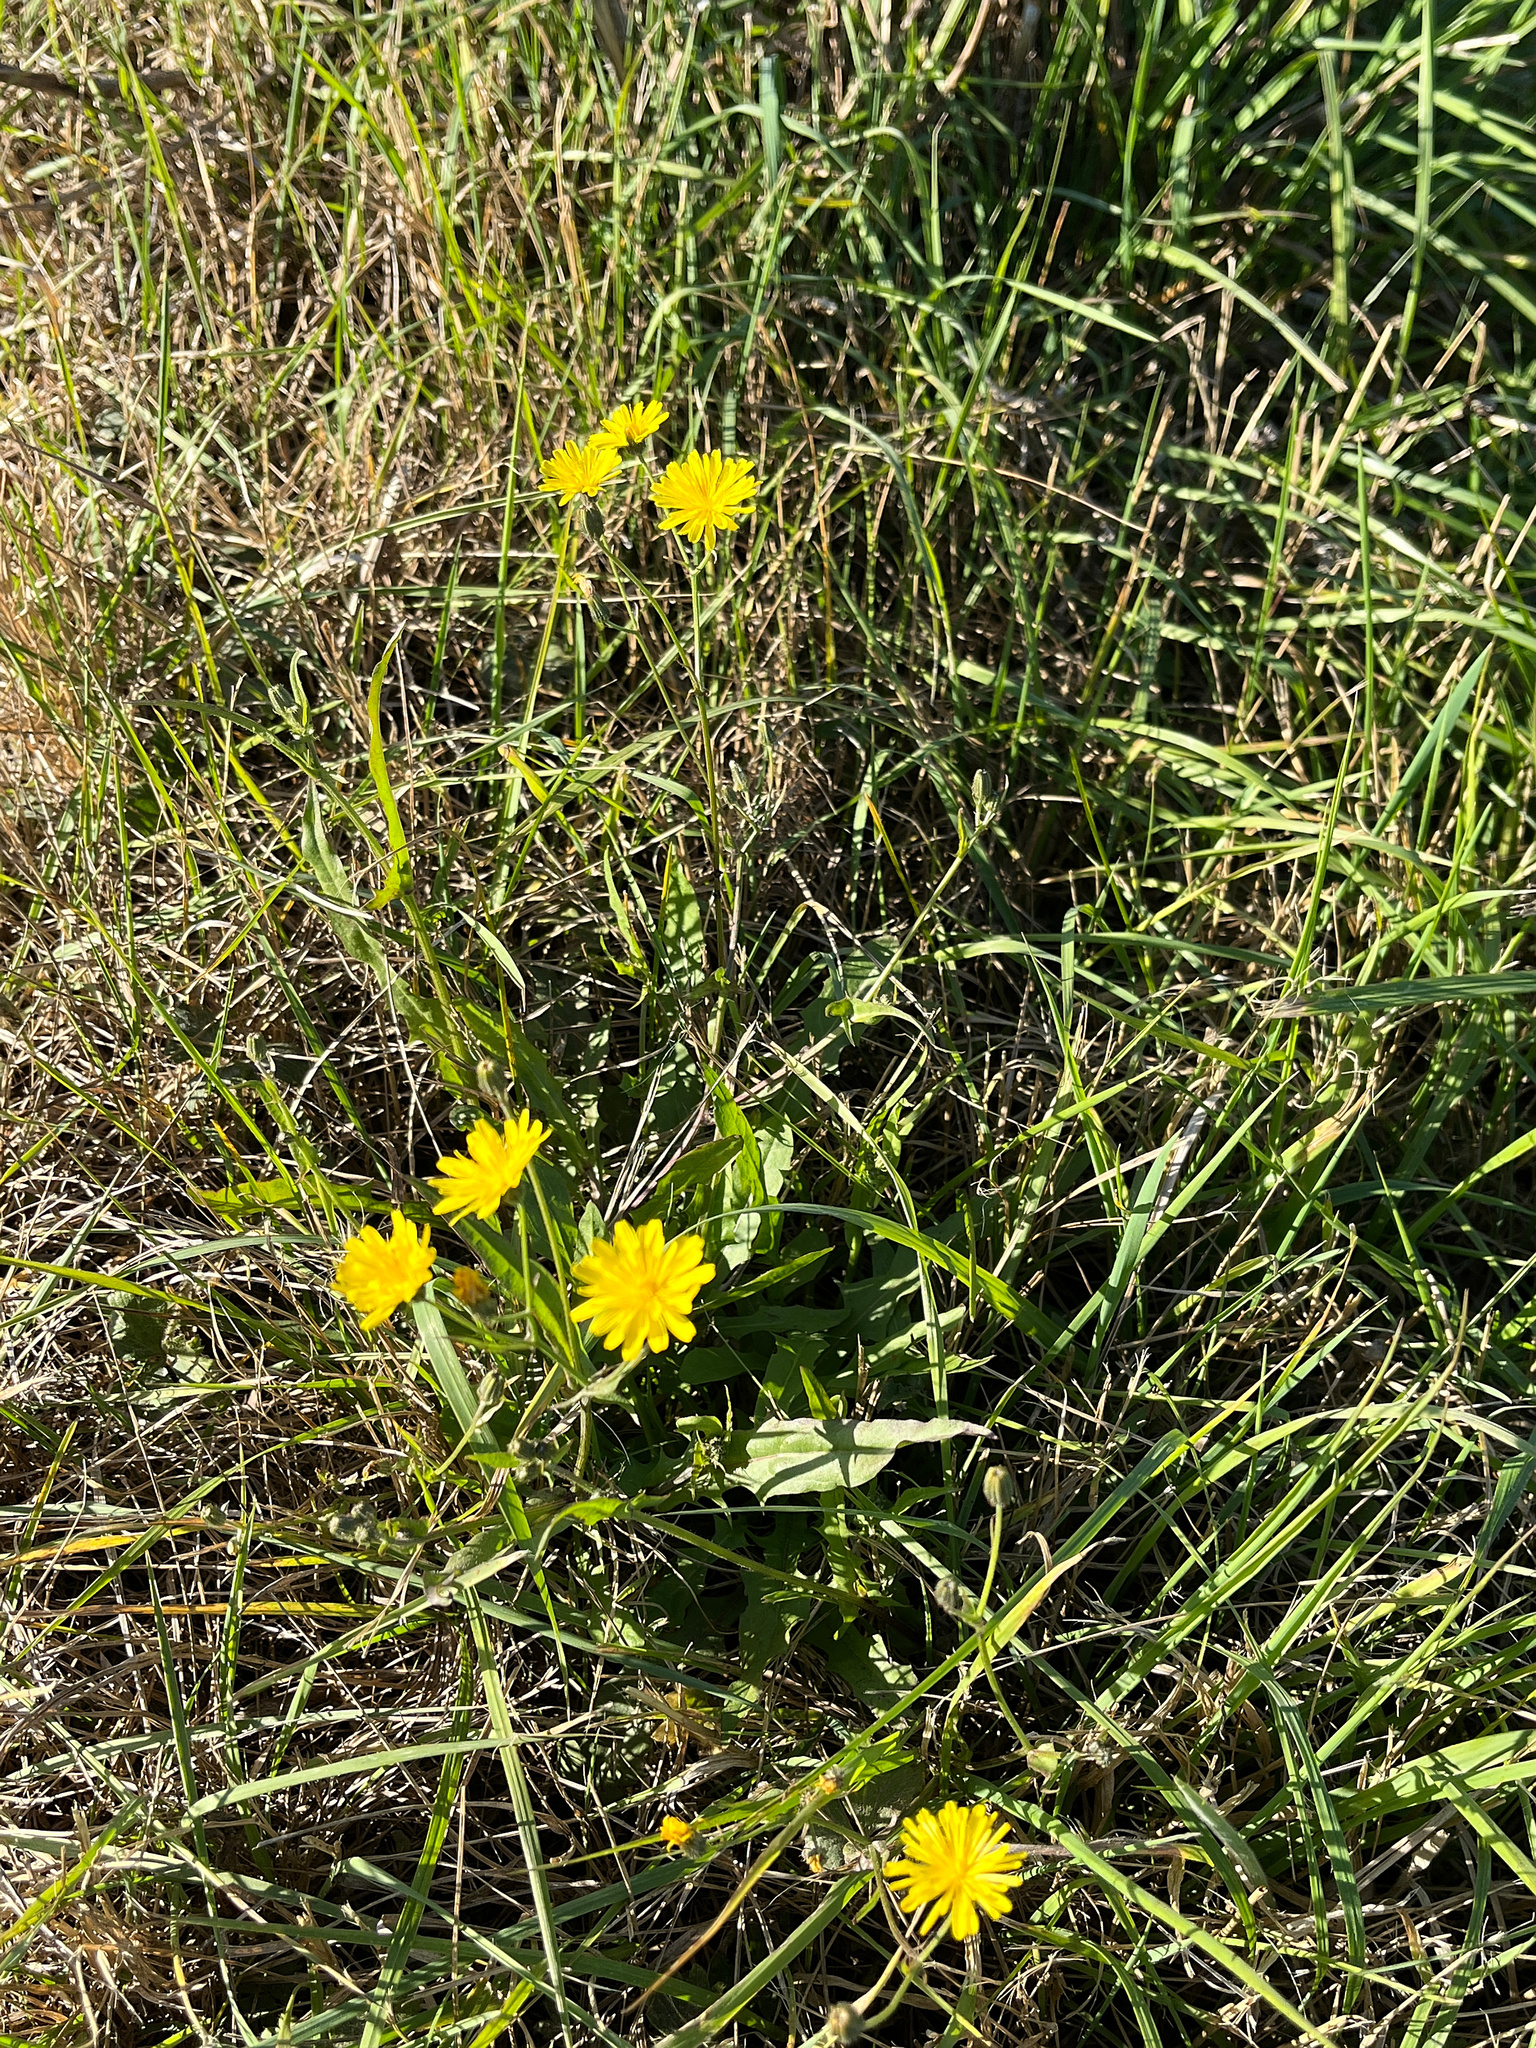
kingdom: Plantae
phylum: Tracheophyta
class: Magnoliopsida
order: Asterales
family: Asteraceae
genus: Crepis
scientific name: Crepis capillaris
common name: Smooth hawksbeard
